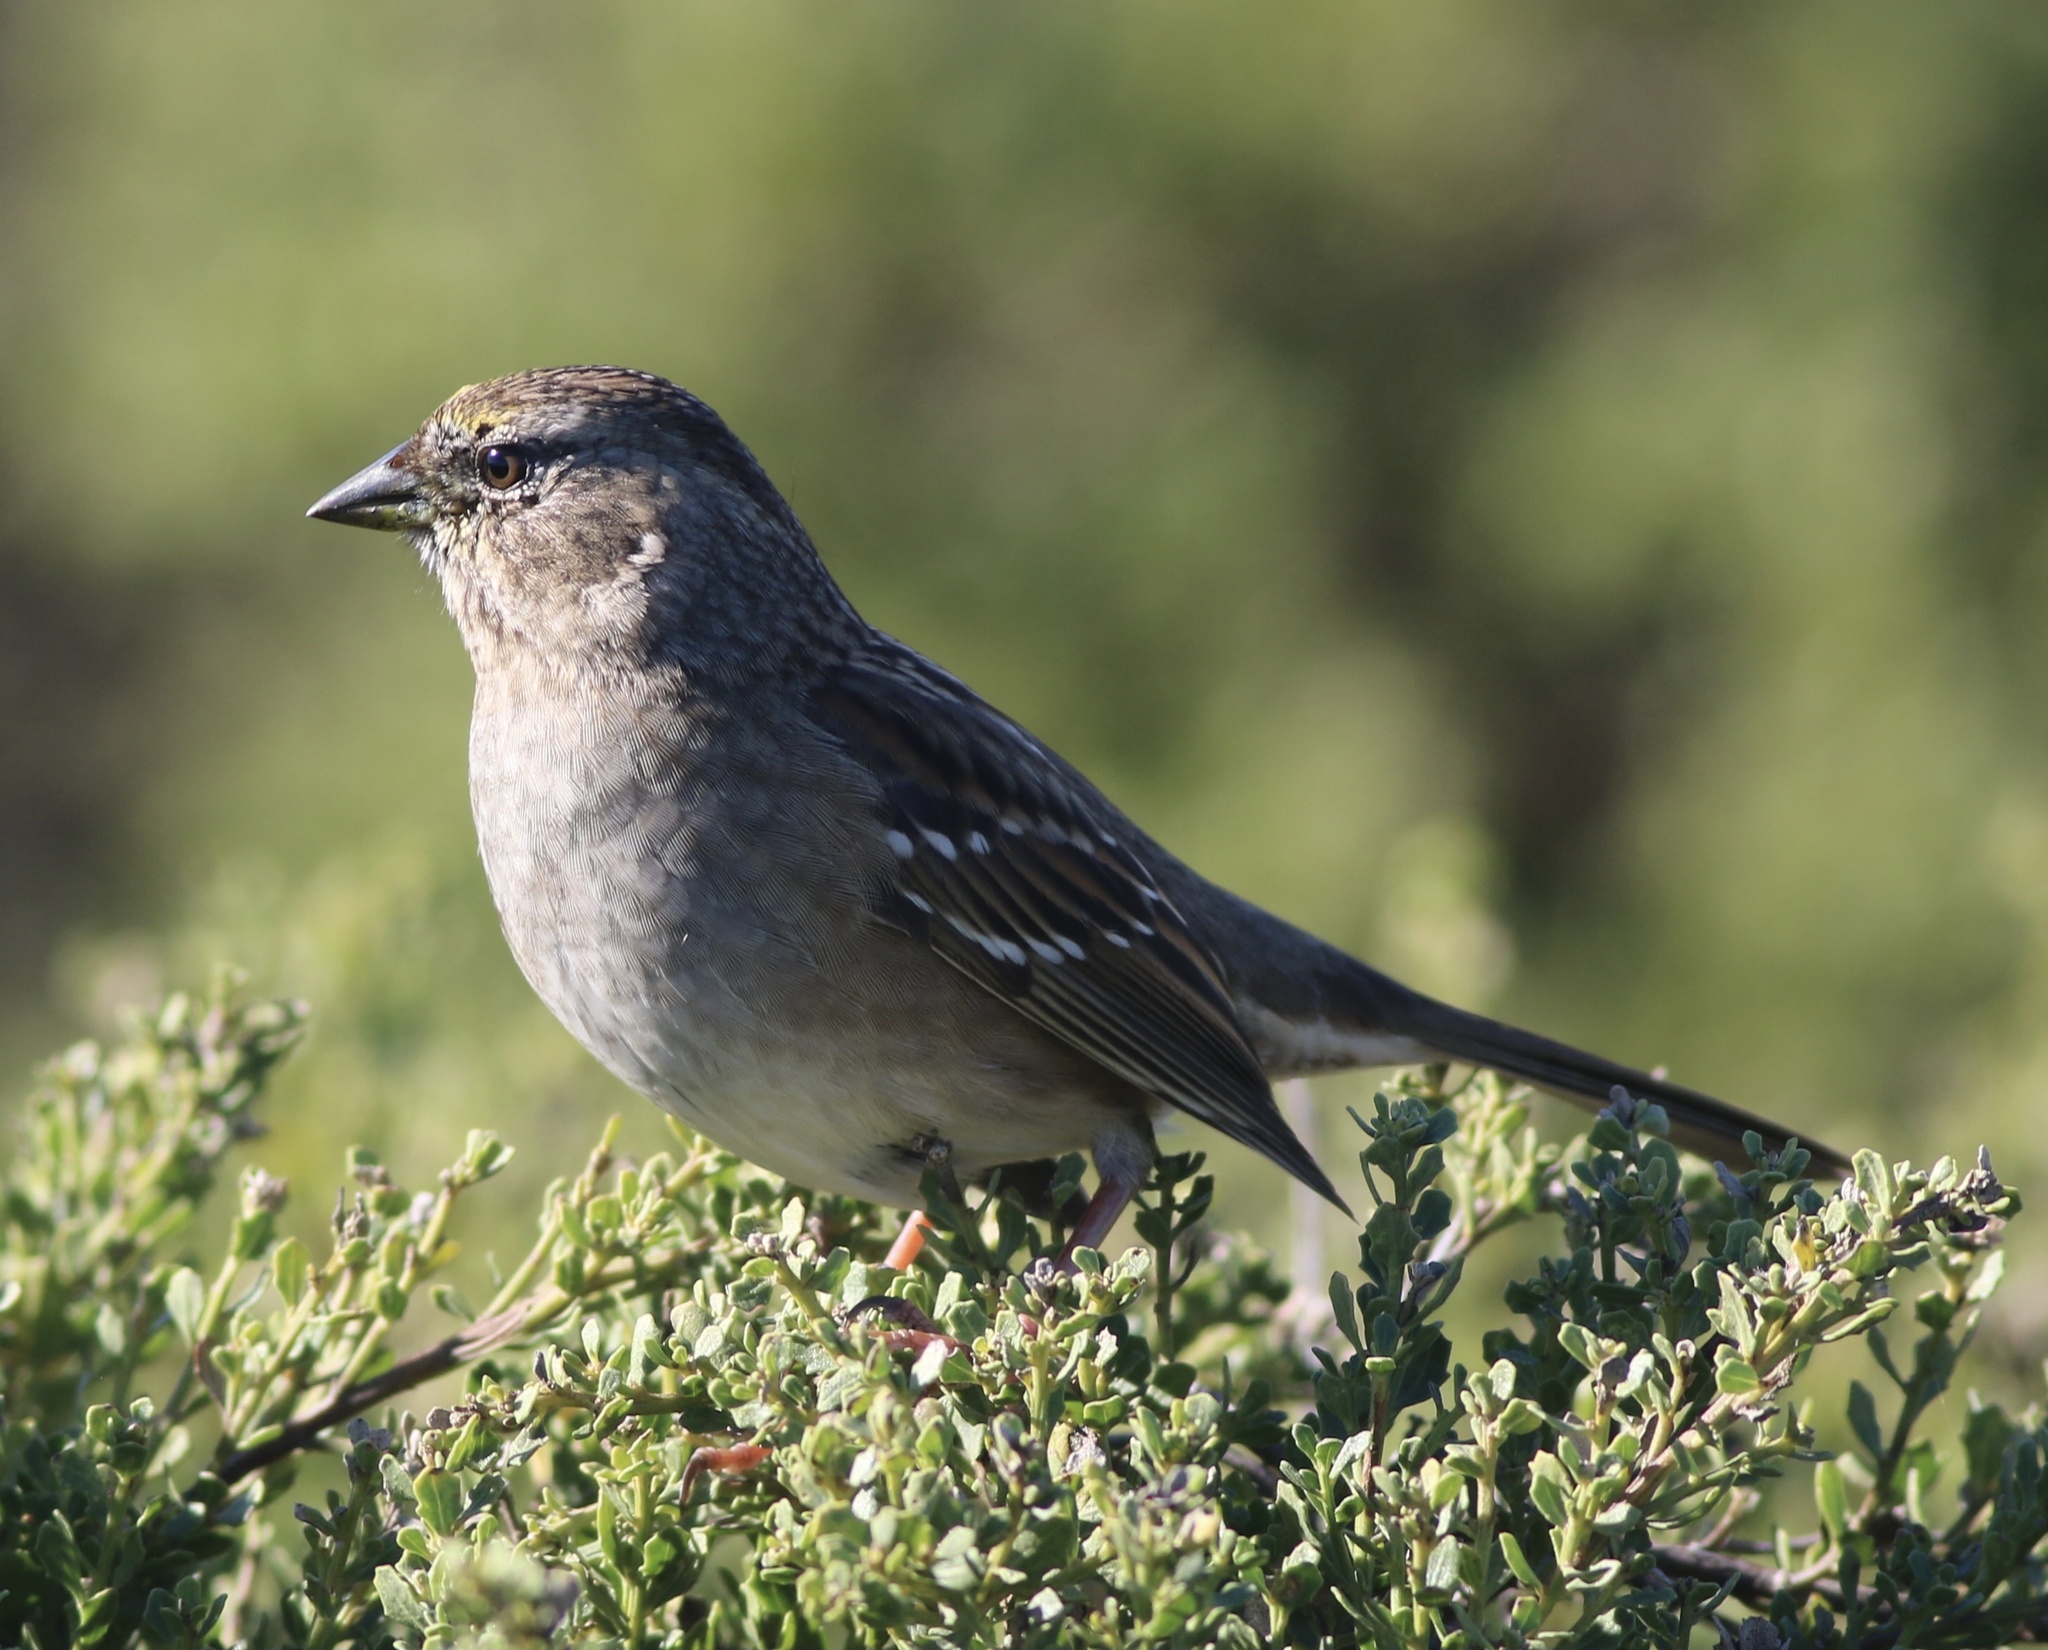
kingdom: Animalia
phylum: Chordata
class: Aves
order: Passeriformes
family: Passerellidae
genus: Zonotrichia
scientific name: Zonotrichia atricapilla
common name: Golden-crowned sparrow
